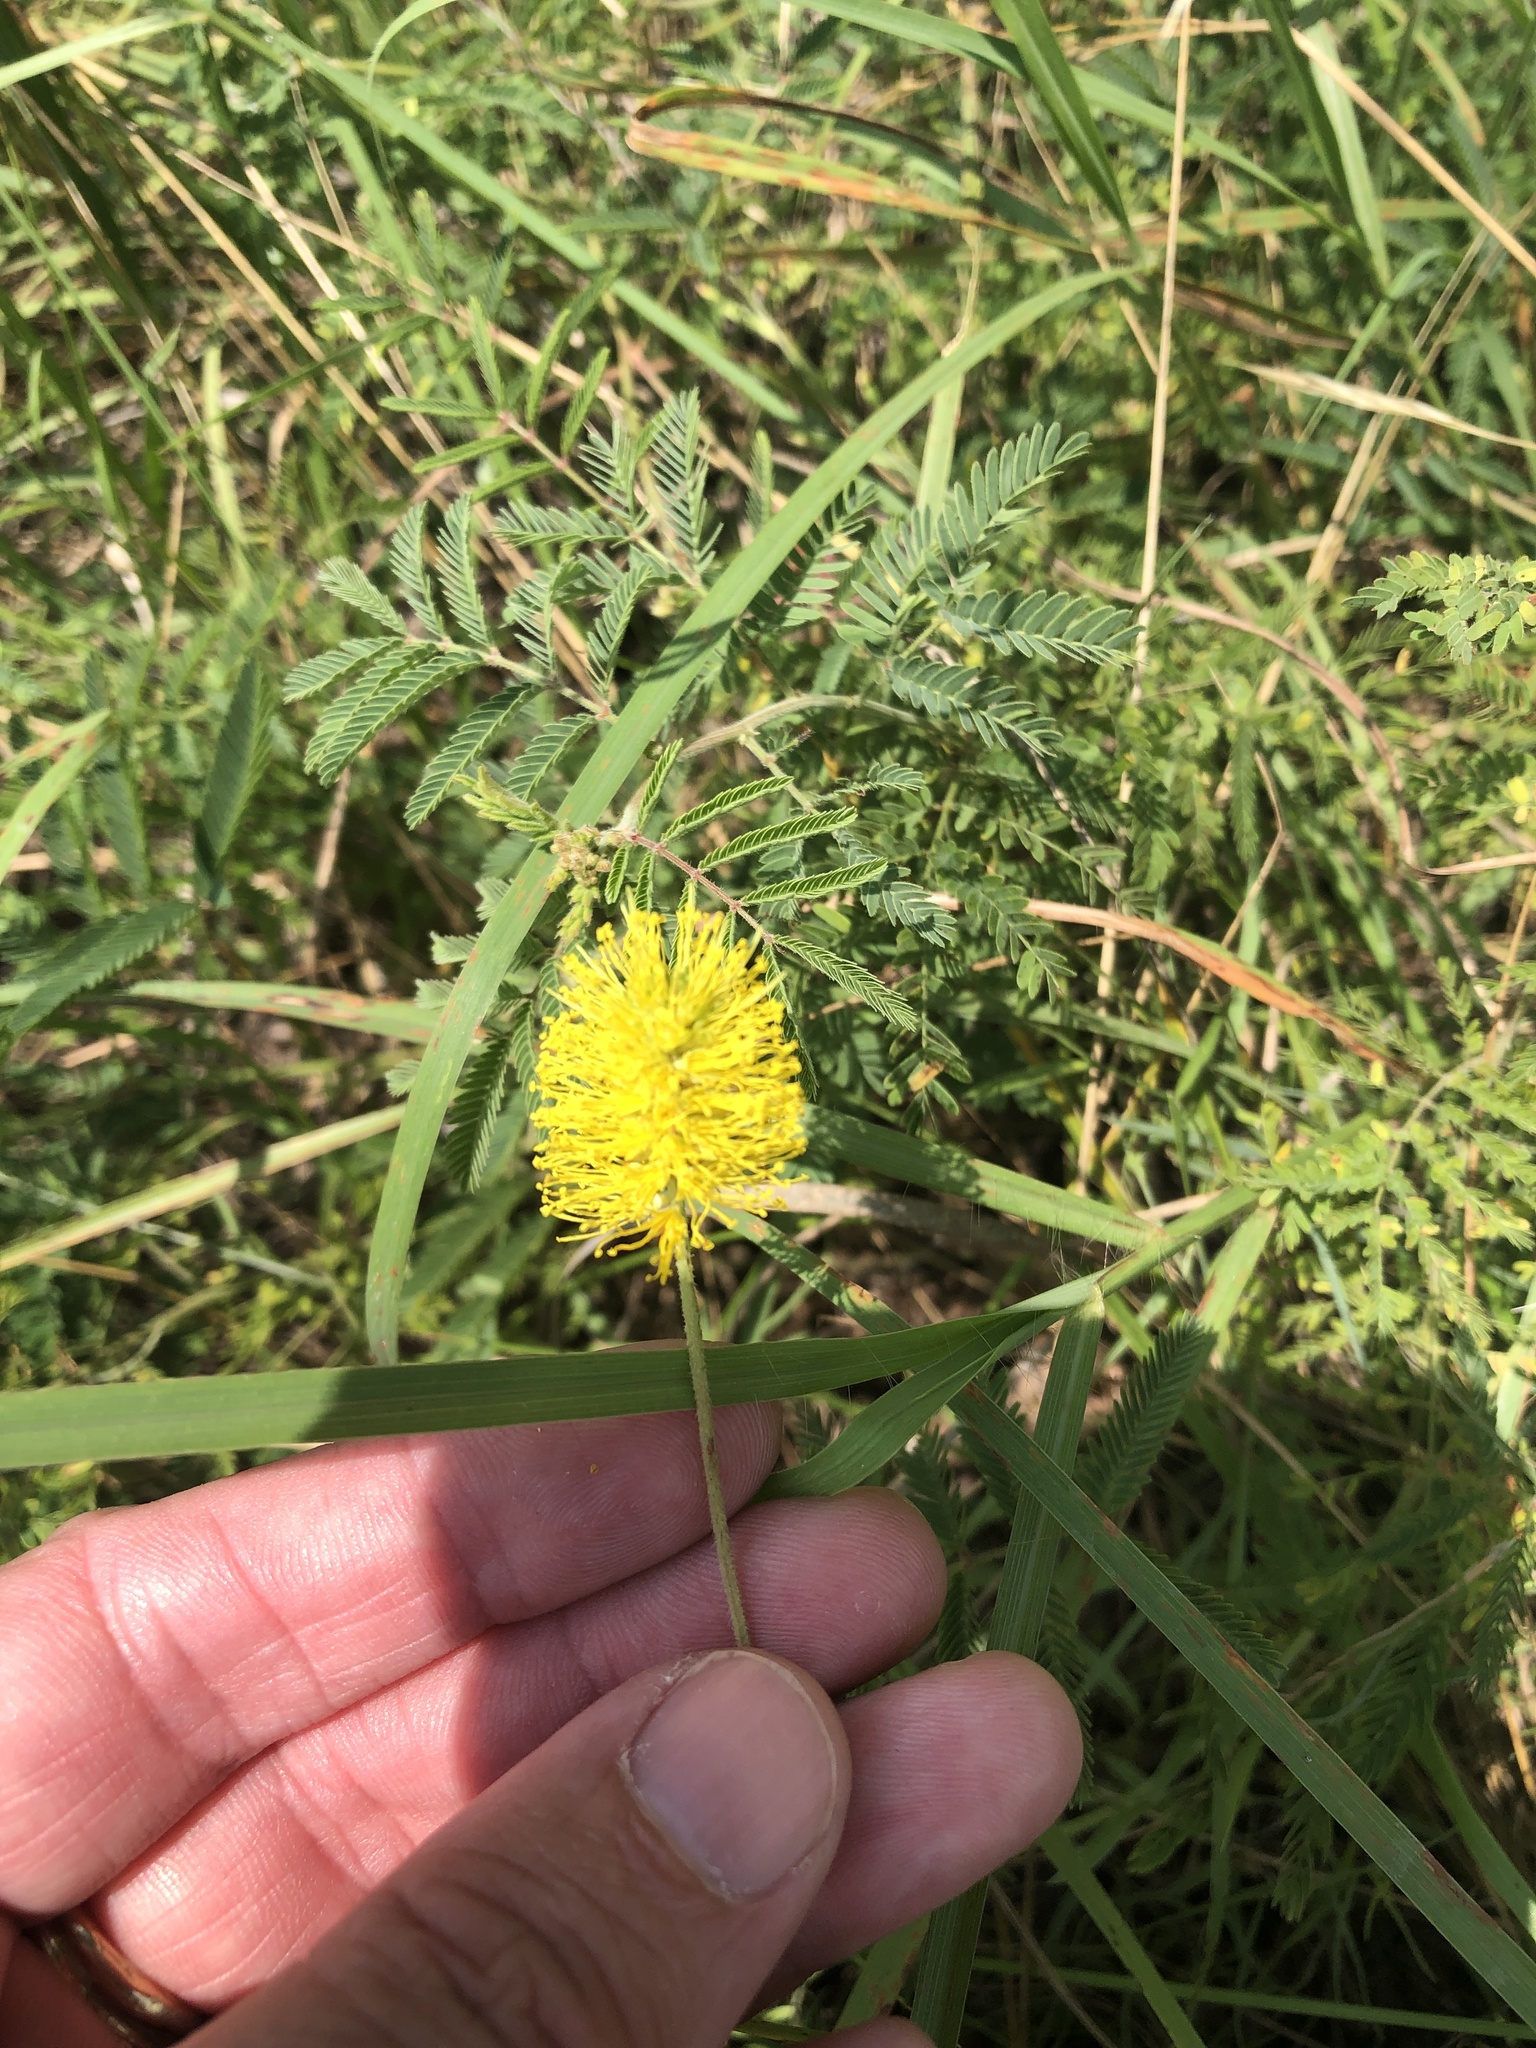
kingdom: Plantae
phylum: Tracheophyta
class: Magnoliopsida
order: Fabales
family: Fabaceae
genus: Neptunia
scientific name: Neptunia lutea
